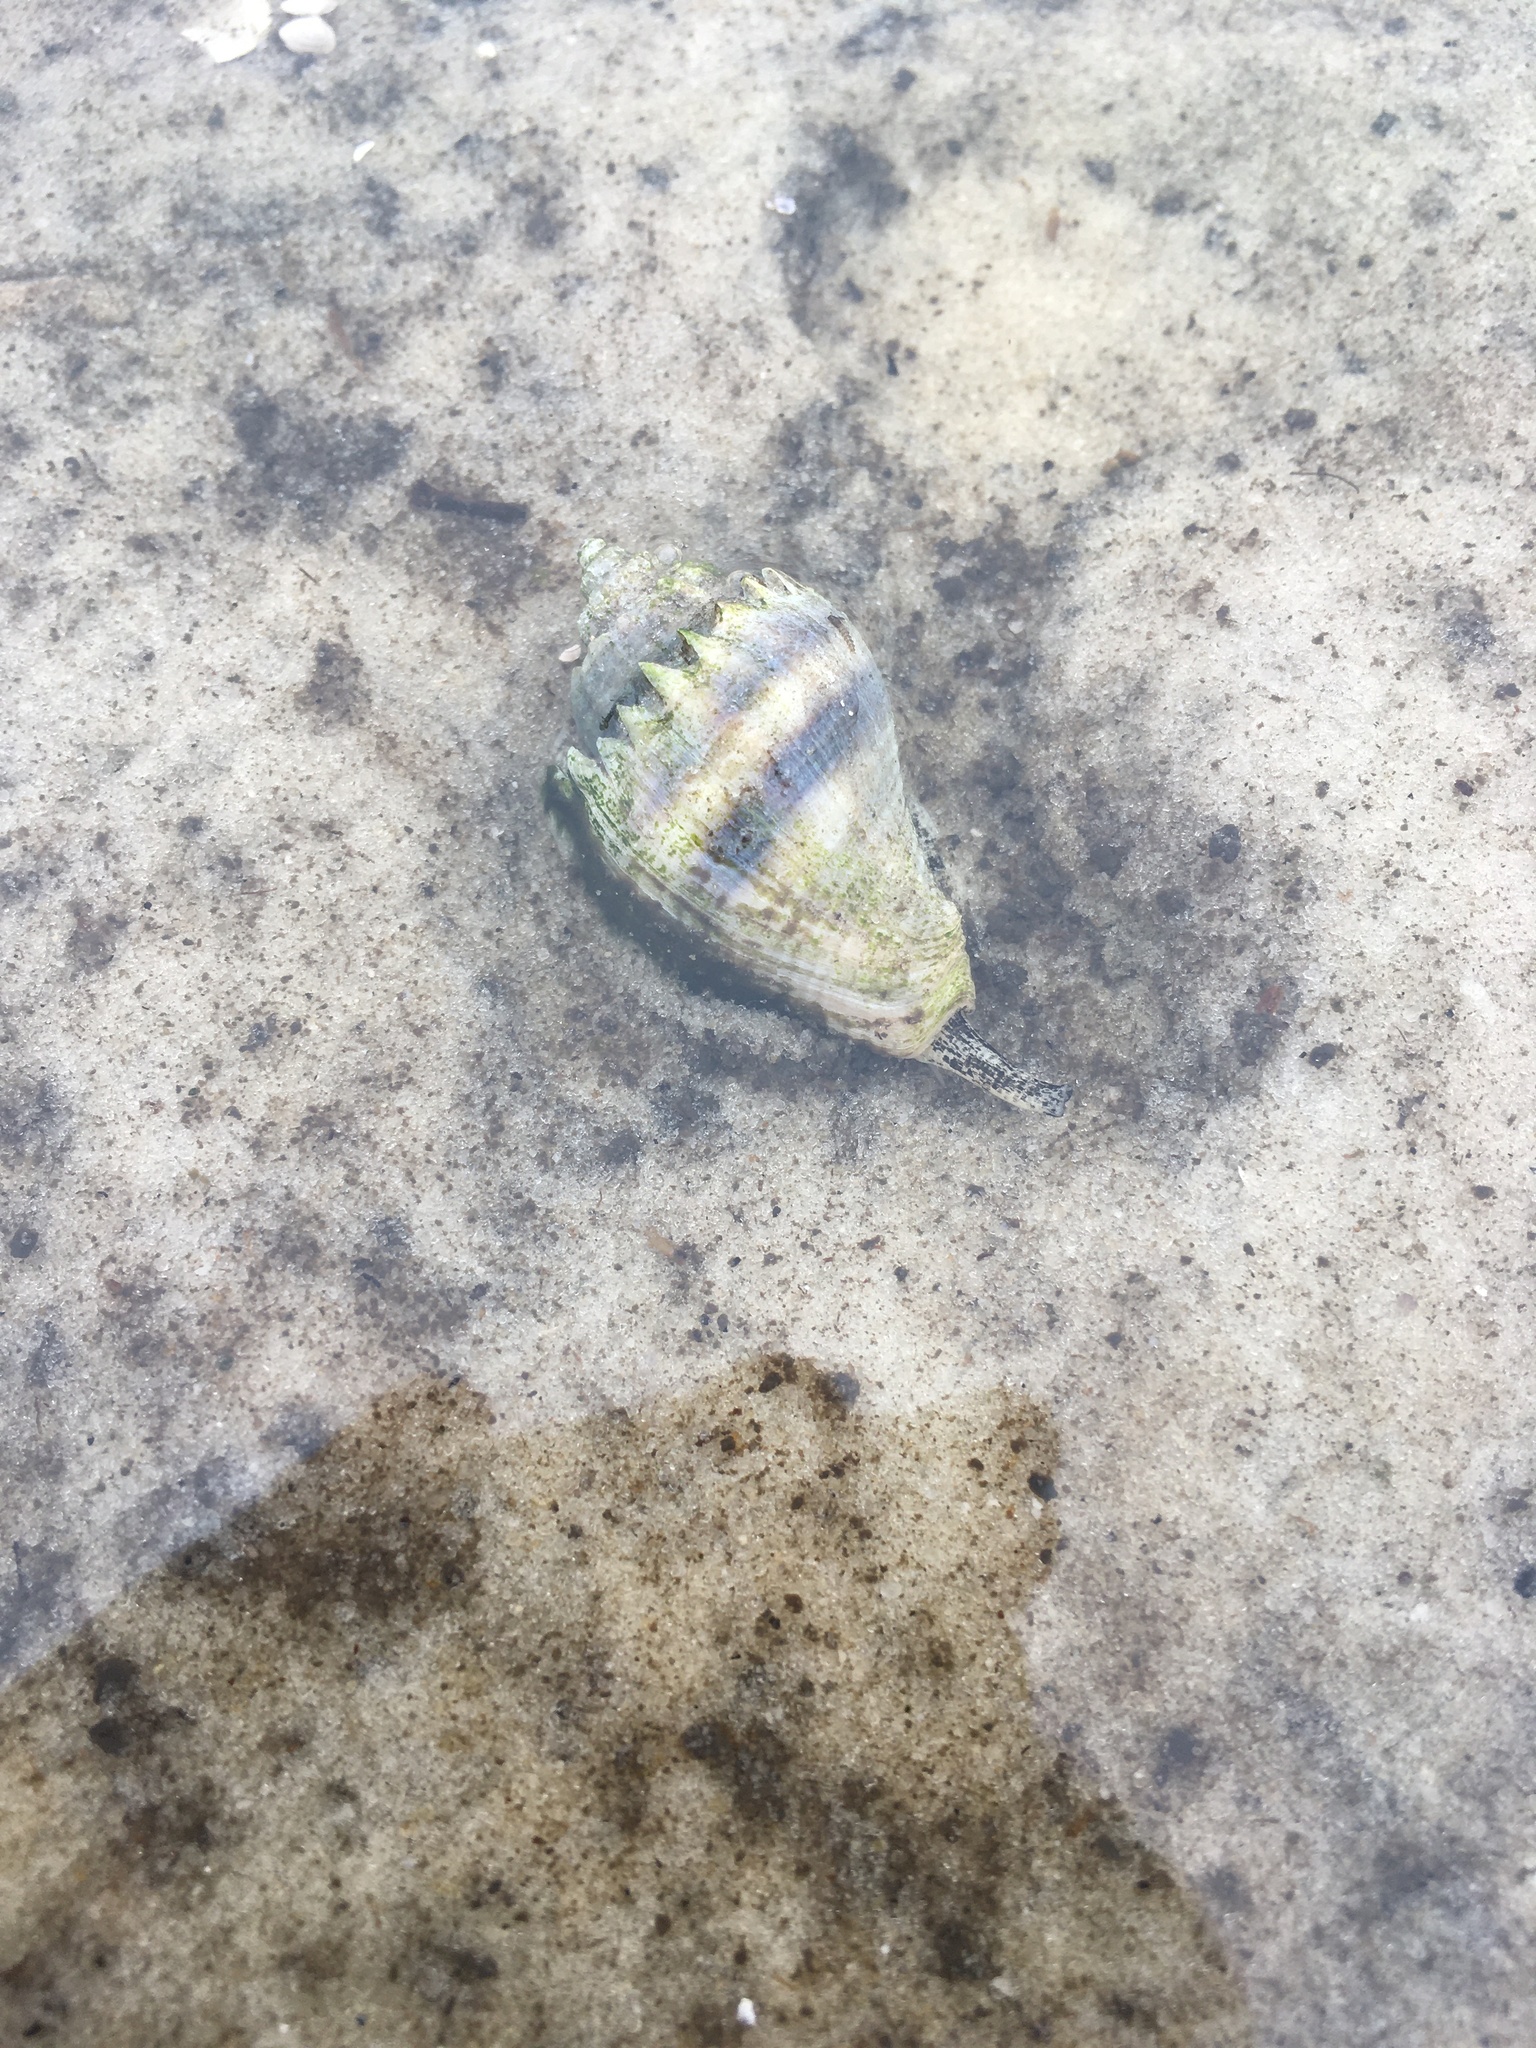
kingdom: Animalia
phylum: Mollusca
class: Gastropoda
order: Neogastropoda
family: Melongenidae
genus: Melongena
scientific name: Melongena corona
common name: American crown conch
